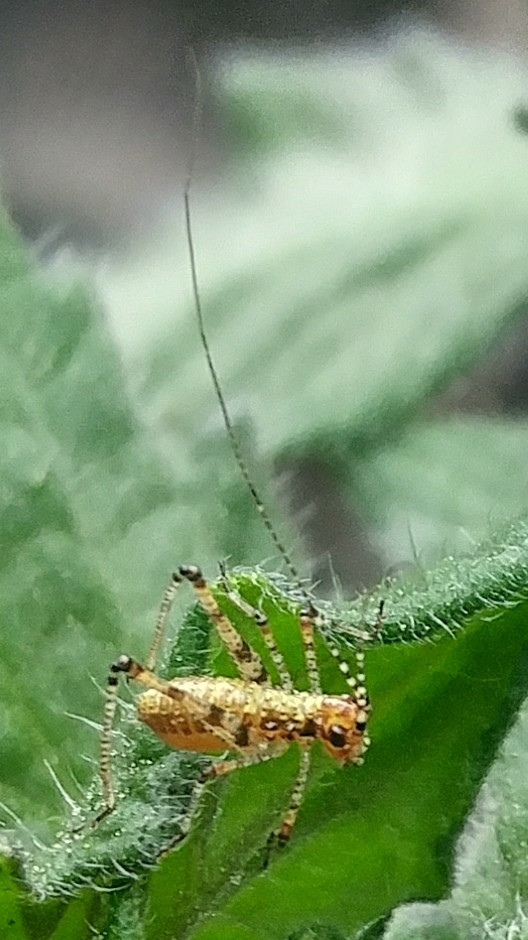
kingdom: Animalia
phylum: Arthropoda
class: Insecta
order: Orthoptera
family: Tettigoniidae
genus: Phaneroptera
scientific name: Phaneroptera nana
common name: Southern sickle bush-cricket
